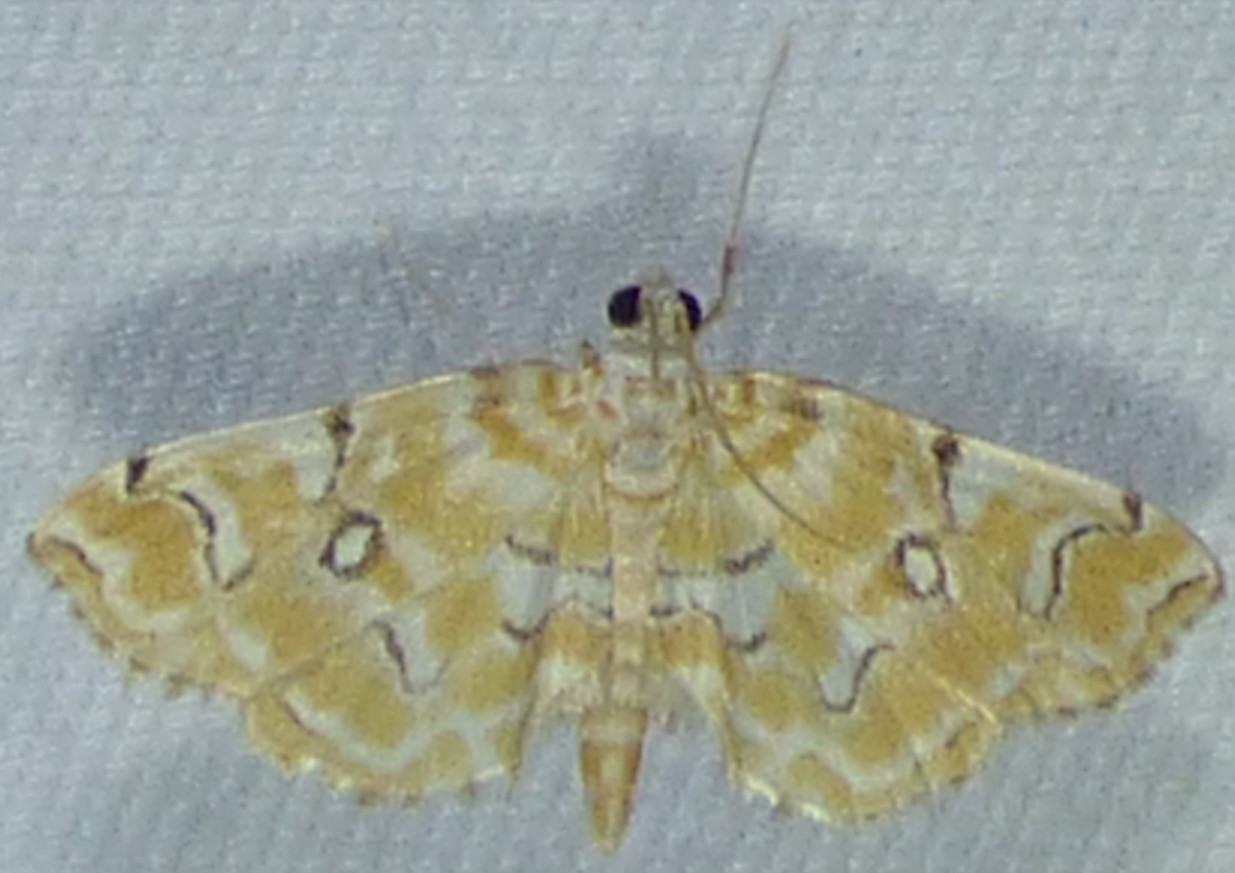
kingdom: Animalia
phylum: Arthropoda
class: Insecta
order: Lepidoptera
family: Crambidae
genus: Elophila
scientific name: Elophila icciusalis
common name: Pondside pyralid moth
